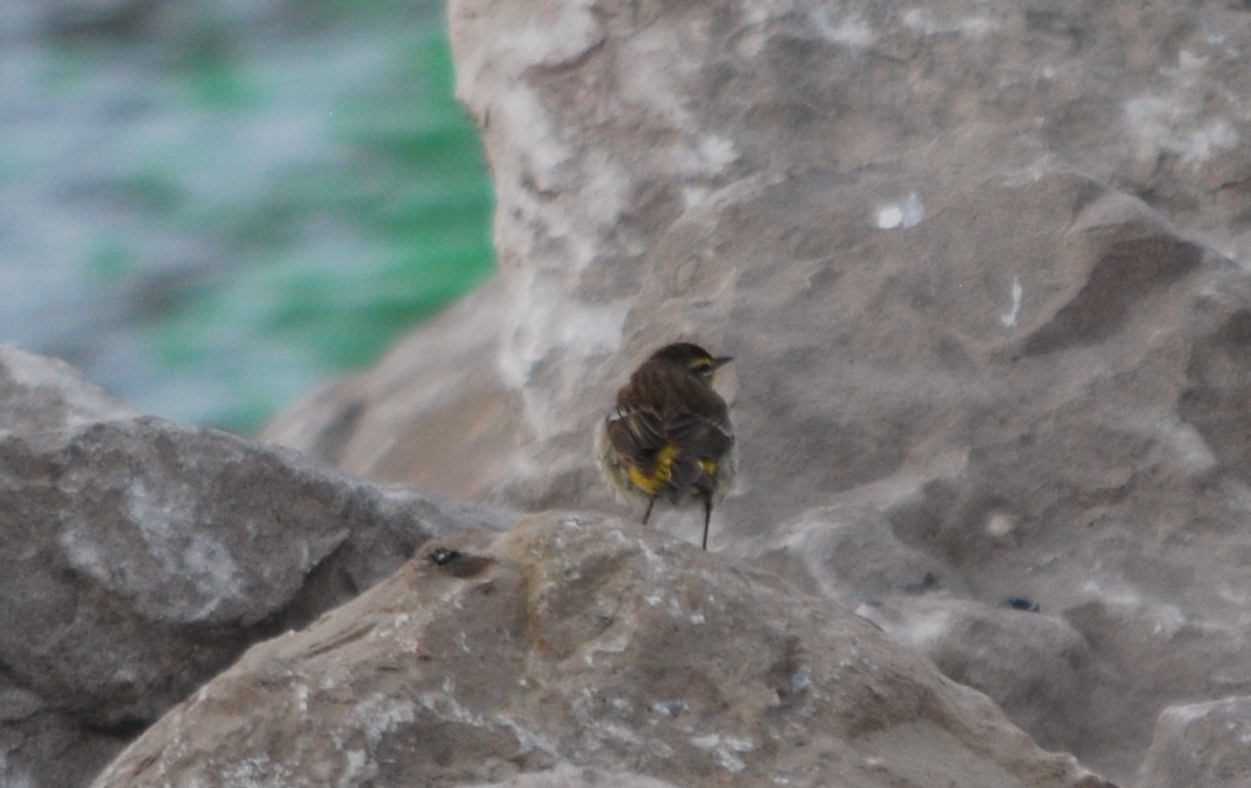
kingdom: Animalia
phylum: Chordata
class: Aves
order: Passeriformes
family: Parulidae
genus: Setophaga
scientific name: Setophaga palmarum
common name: Palm warbler
